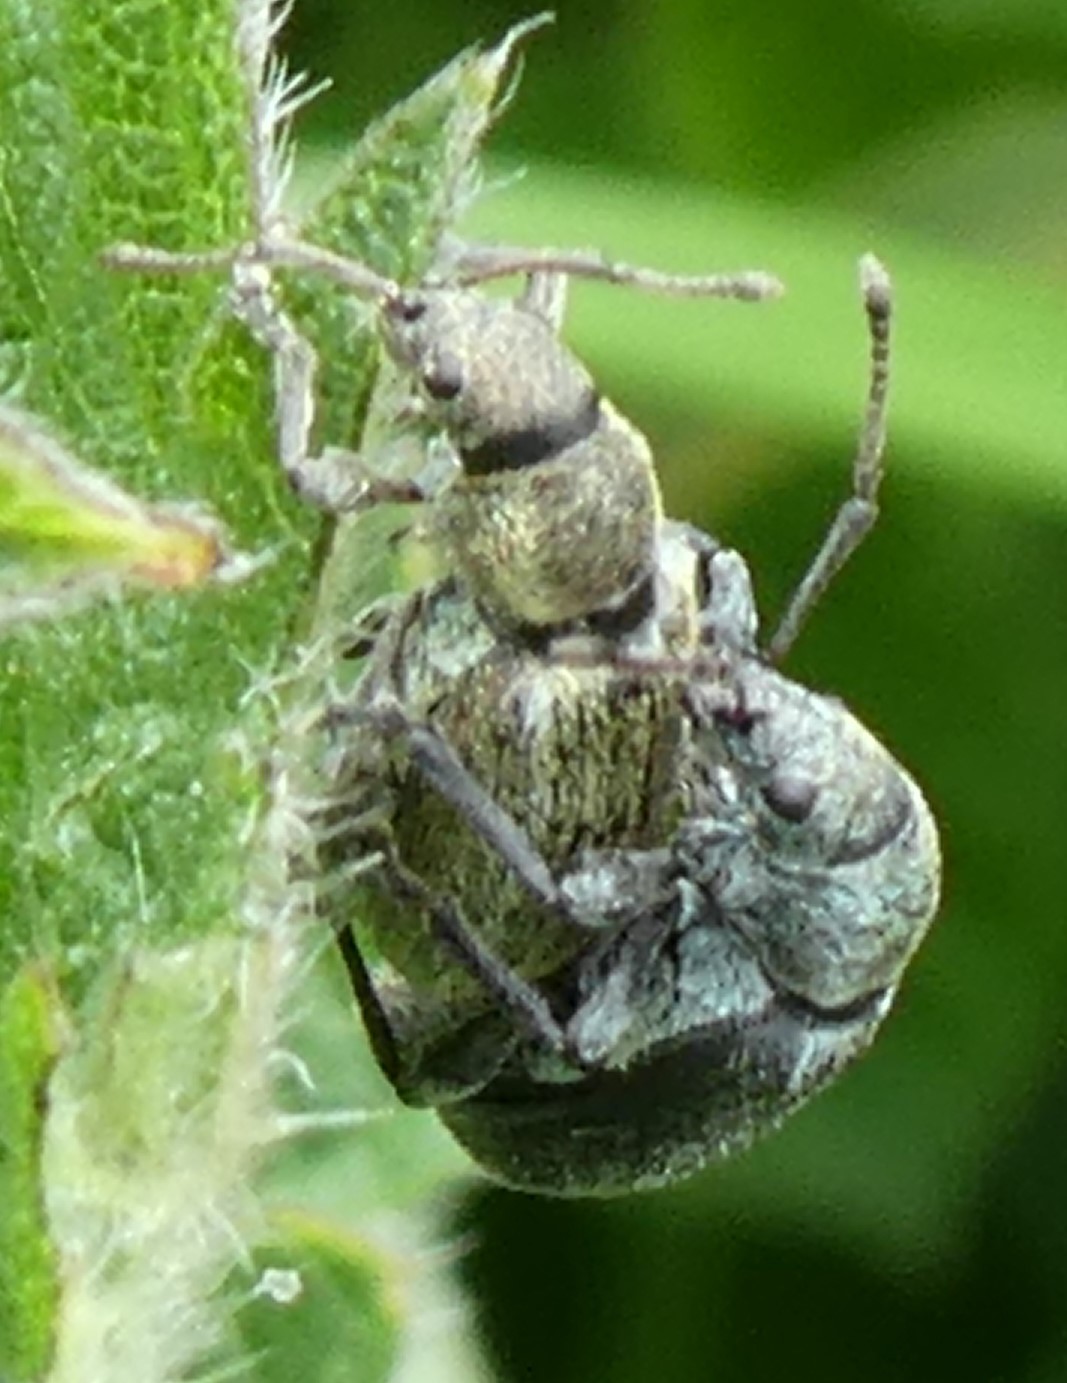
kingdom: Animalia
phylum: Arthropoda
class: Insecta
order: Coleoptera
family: Curculionidae
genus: Phyllobius
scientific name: Phyllobius pyri
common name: Common leaf weevil
